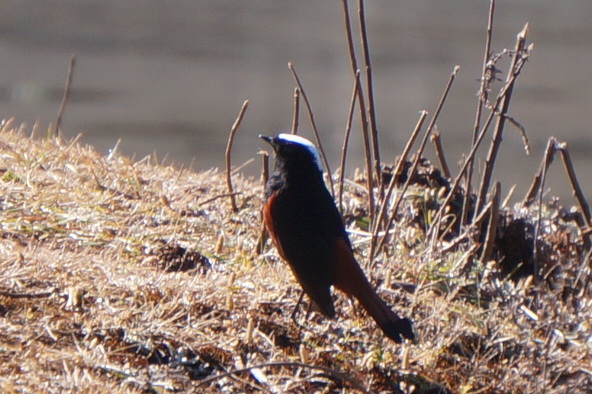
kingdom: Animalia
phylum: Chordata
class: Aves
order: Passeriformes
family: Muscicapidae
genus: Chaimarrornis
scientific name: Chaimarrornis leucocephalus
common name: White-capped redstart
